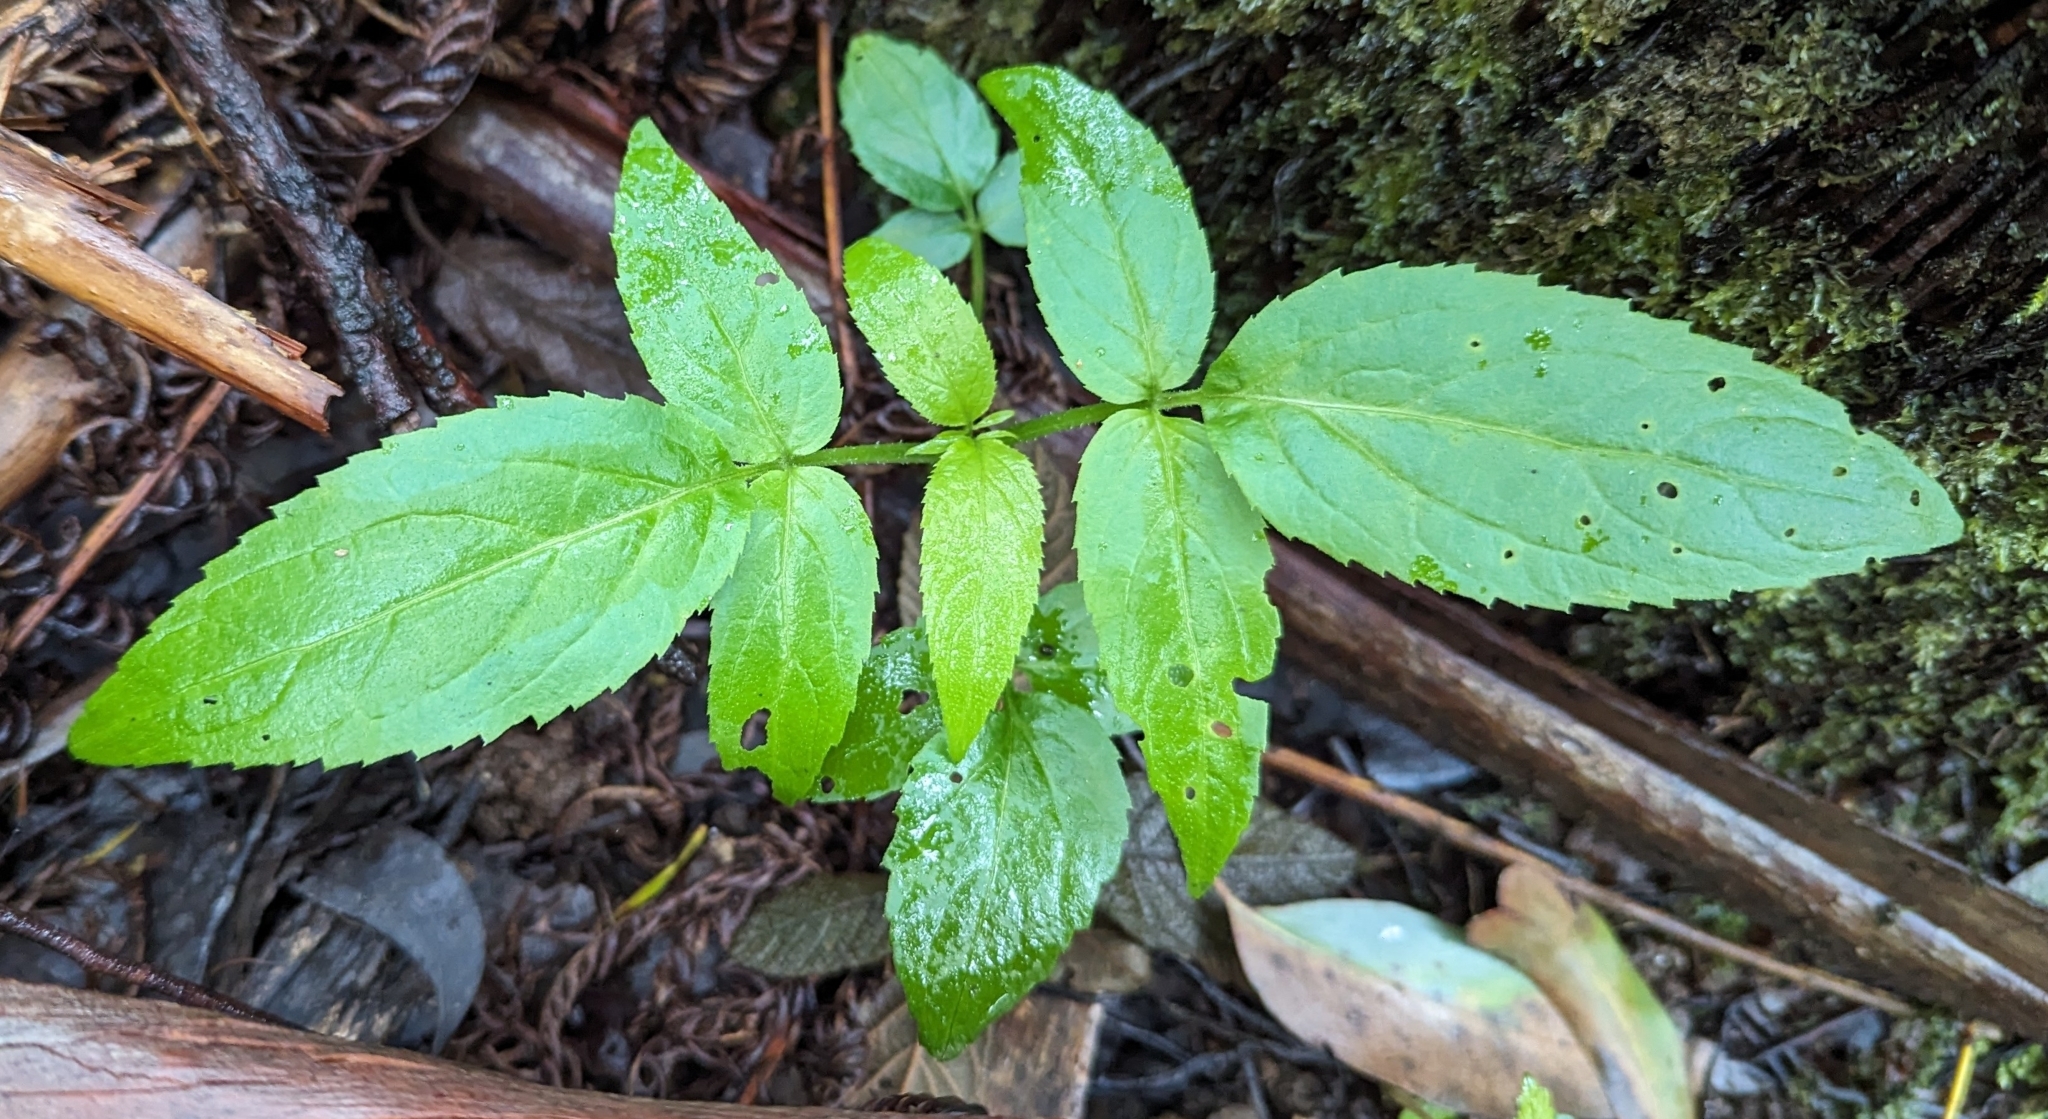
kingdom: Plantae
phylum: Tracheophyta
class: Magnoliopsida
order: Dipsacales
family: Viburnaceae
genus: Sambucus
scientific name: Sambucus gaudichaudiana
